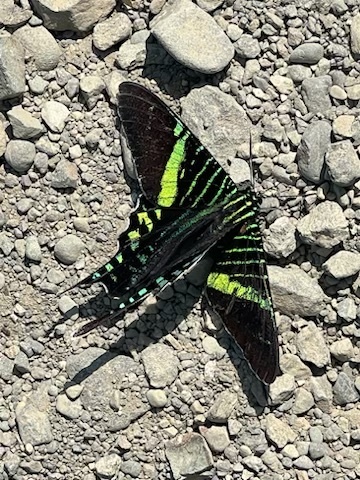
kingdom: Animalia
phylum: Arthropoda
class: Insecta
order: Lepidoptera
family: Uraniidae
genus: Urania
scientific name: Urania fulgens
